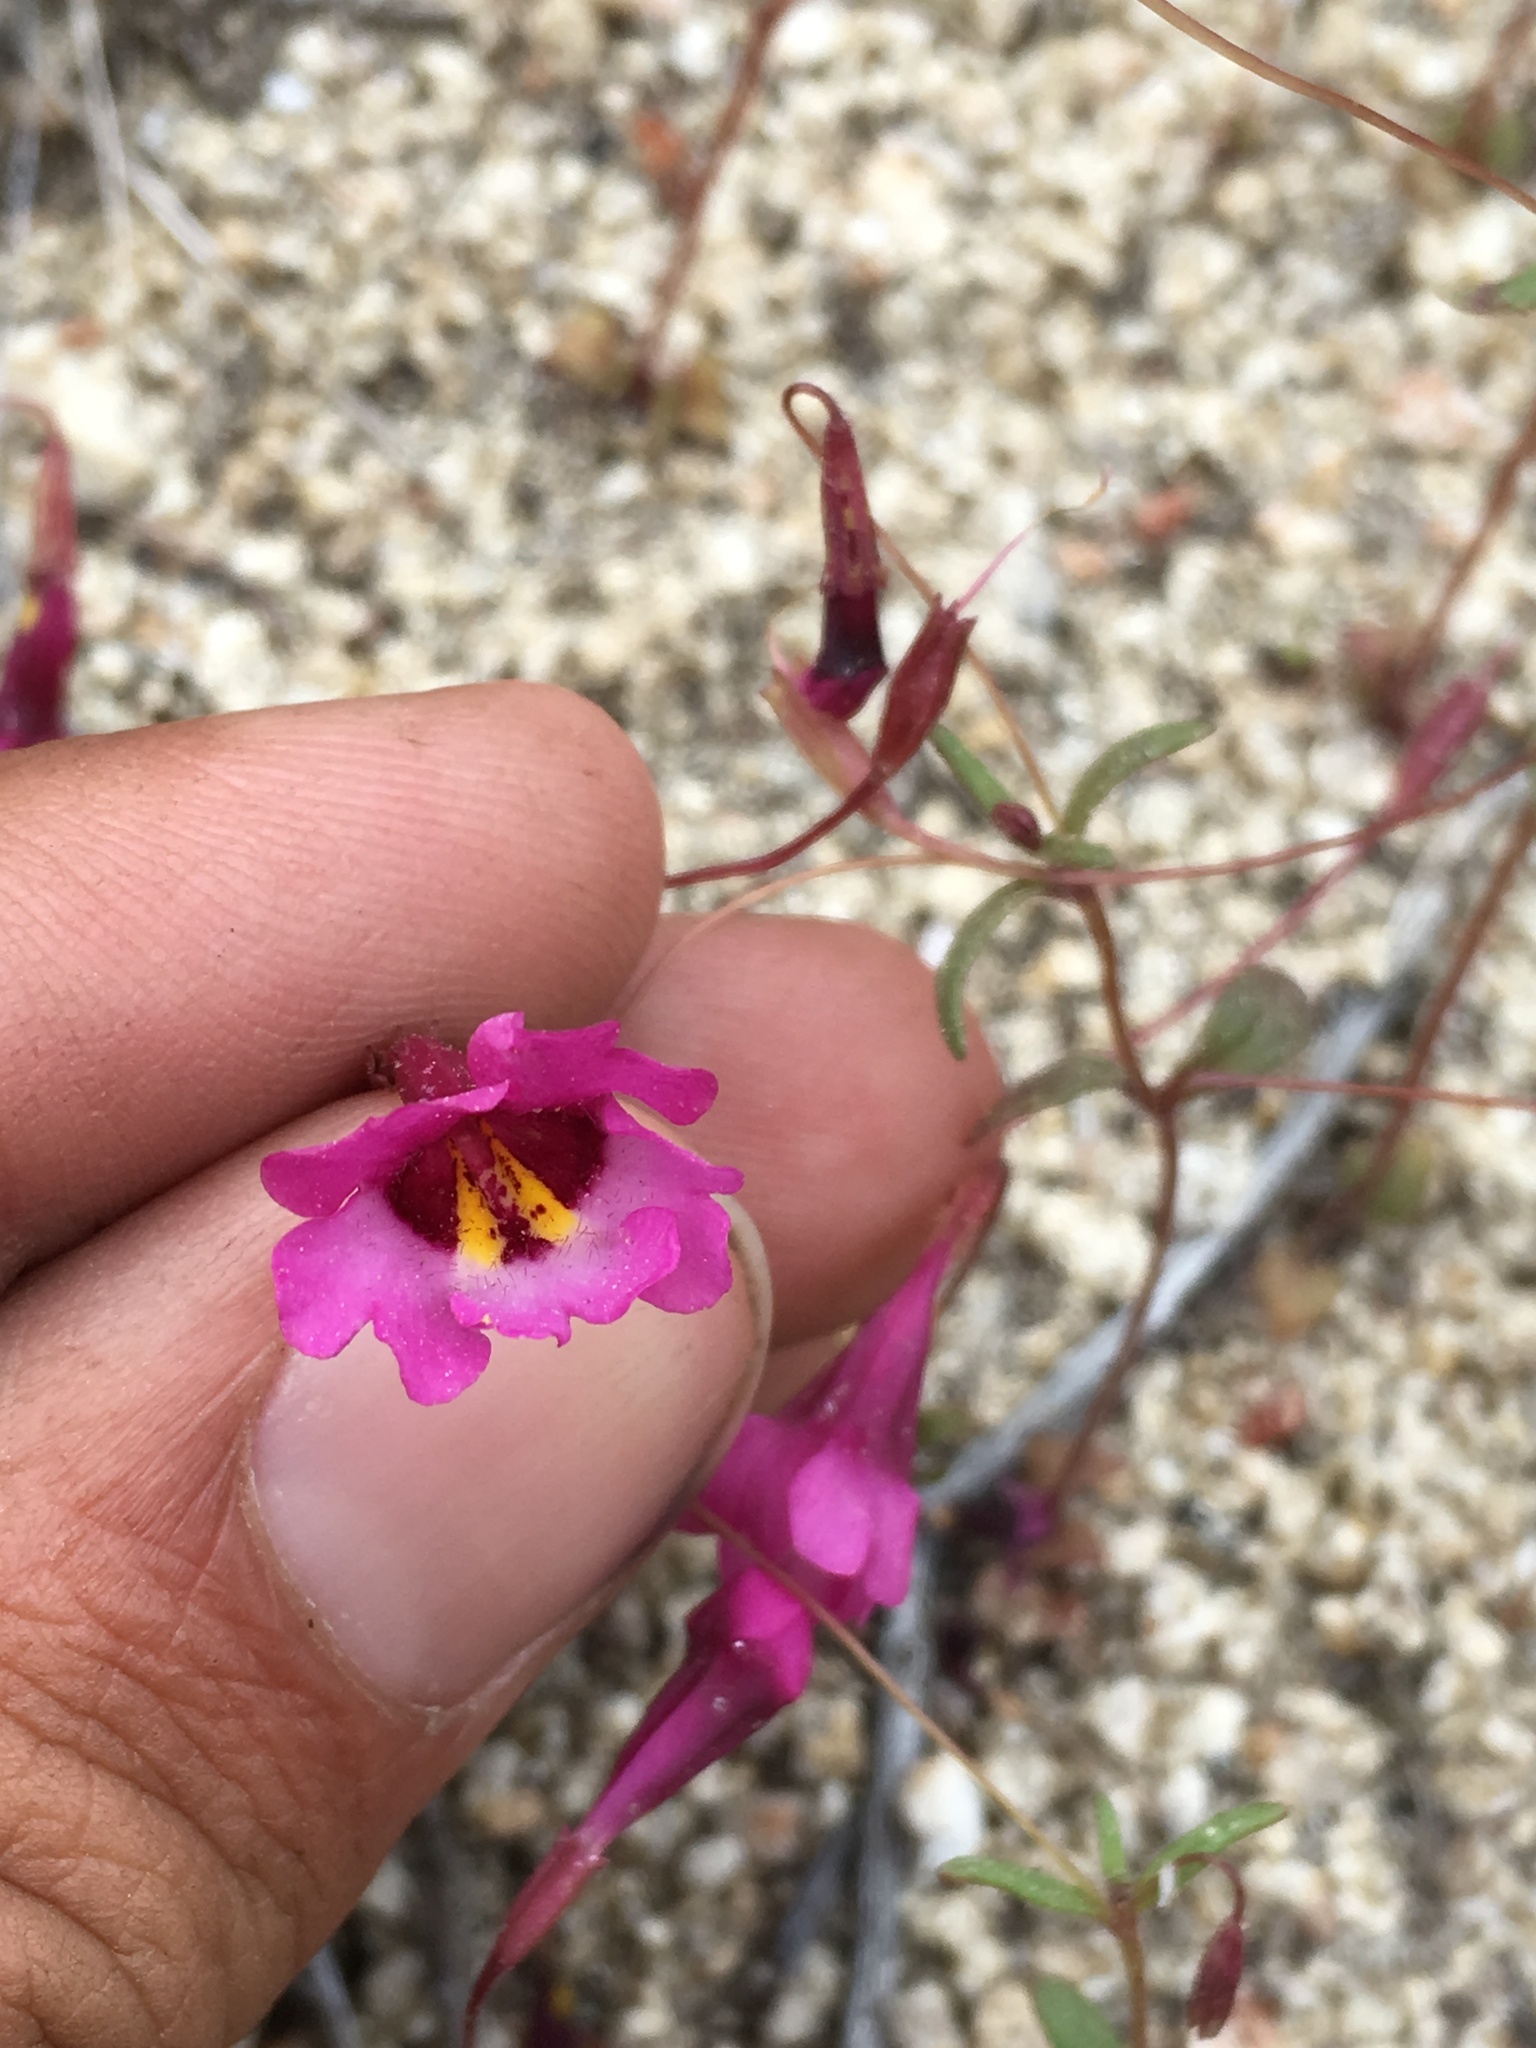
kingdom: Plantae
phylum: Tracheophyta
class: Magnoliopsida
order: Lamiales
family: Phrymaceae
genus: Erythranthe
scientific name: Erythranthe diffusa
